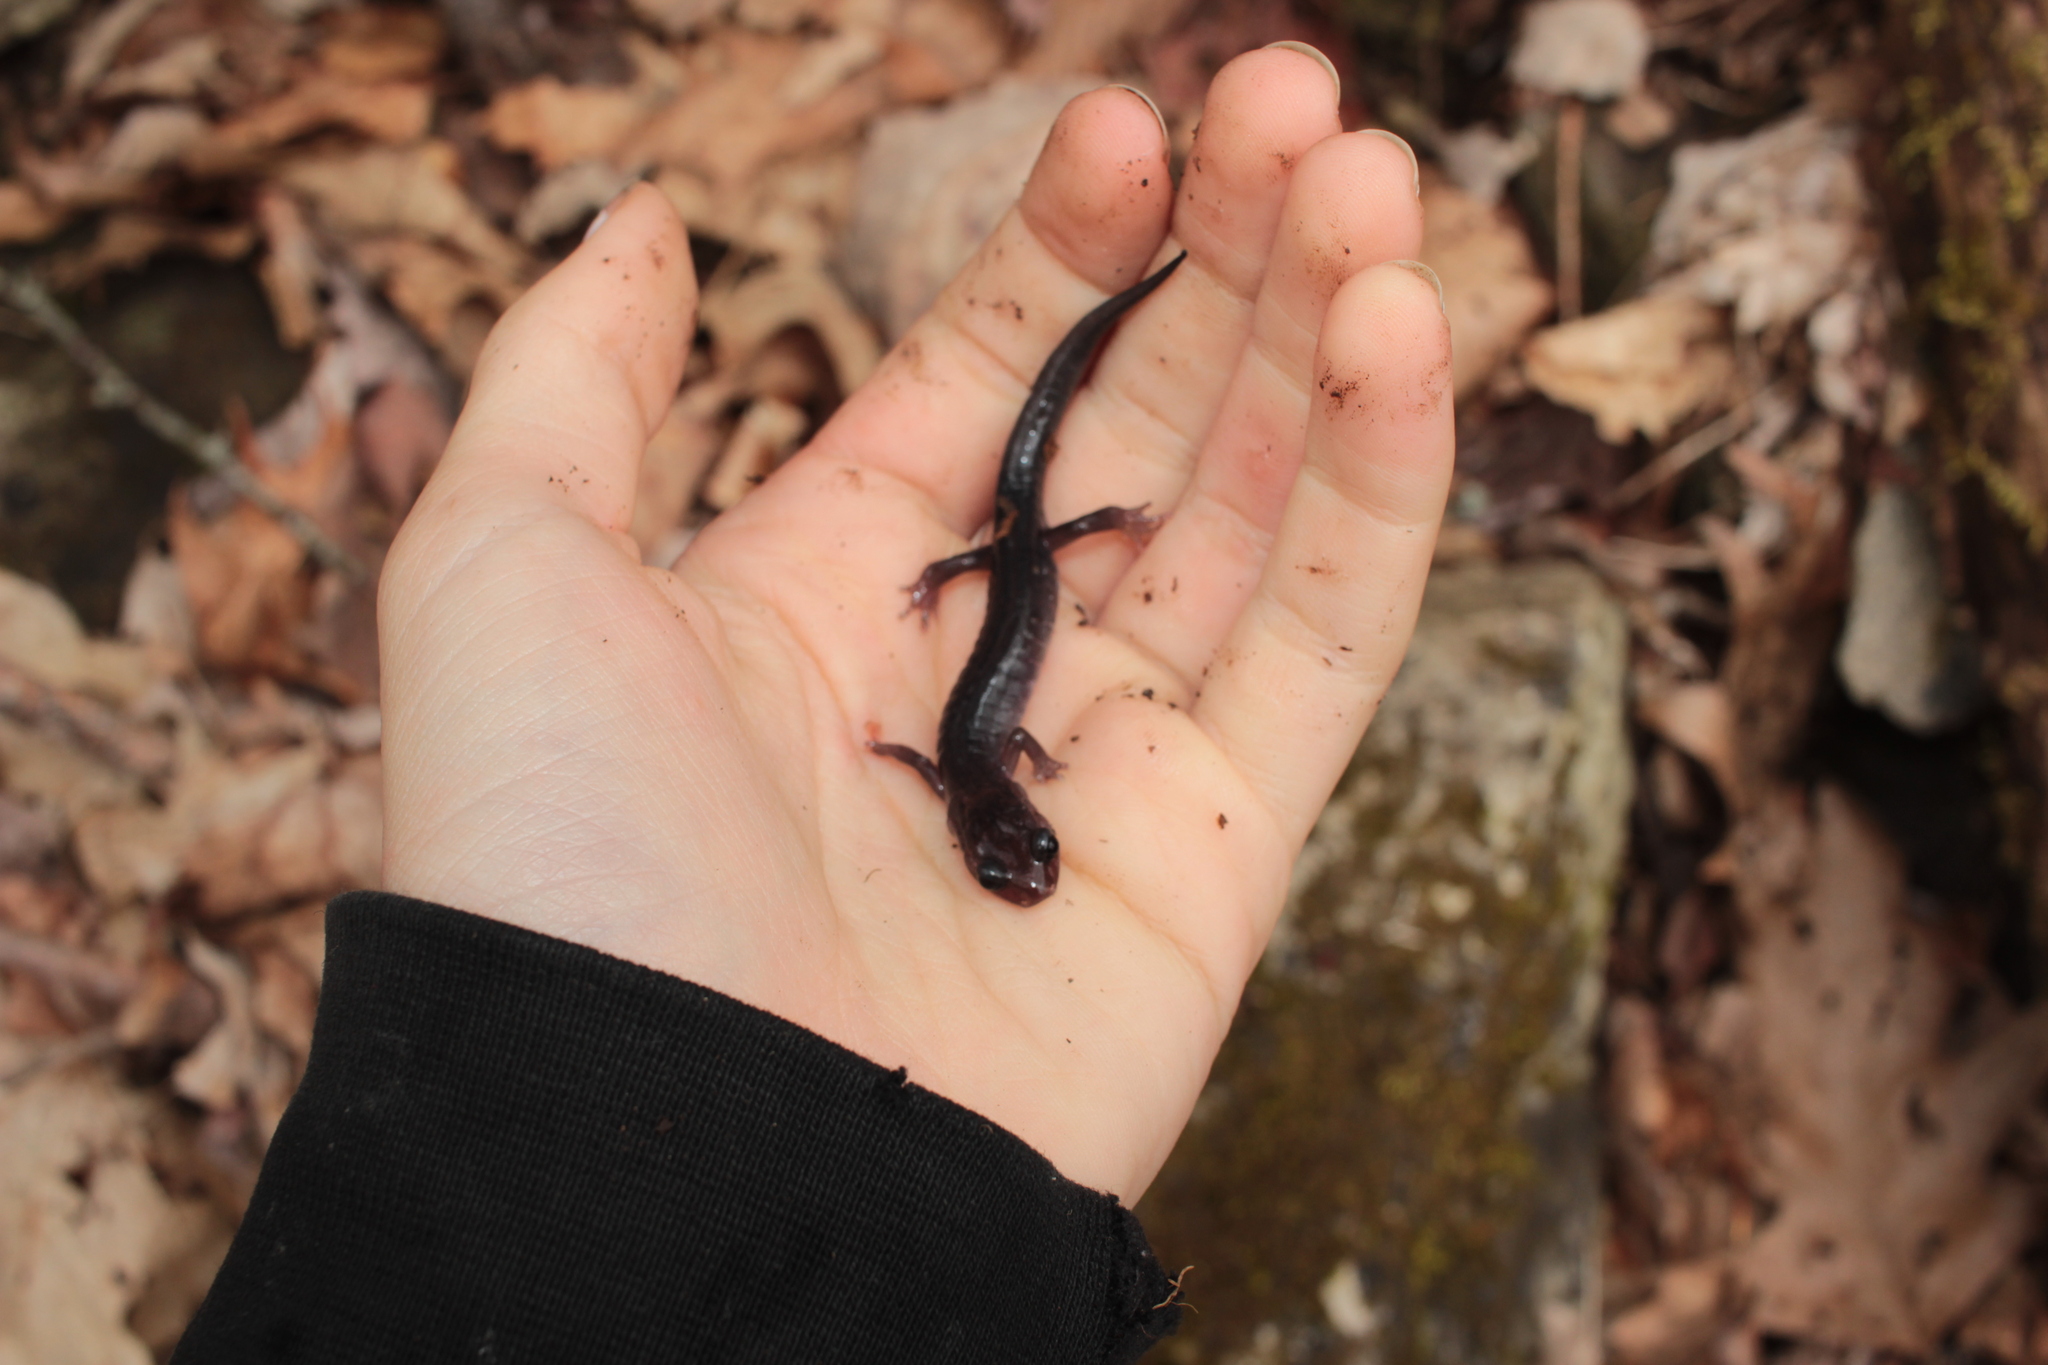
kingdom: Animalia
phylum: Chordata
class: Amphibia
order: Caudata
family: Plethodontidae
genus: Plethodon
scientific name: Plethodon montanus
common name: Northern gray-cheeked salamander
